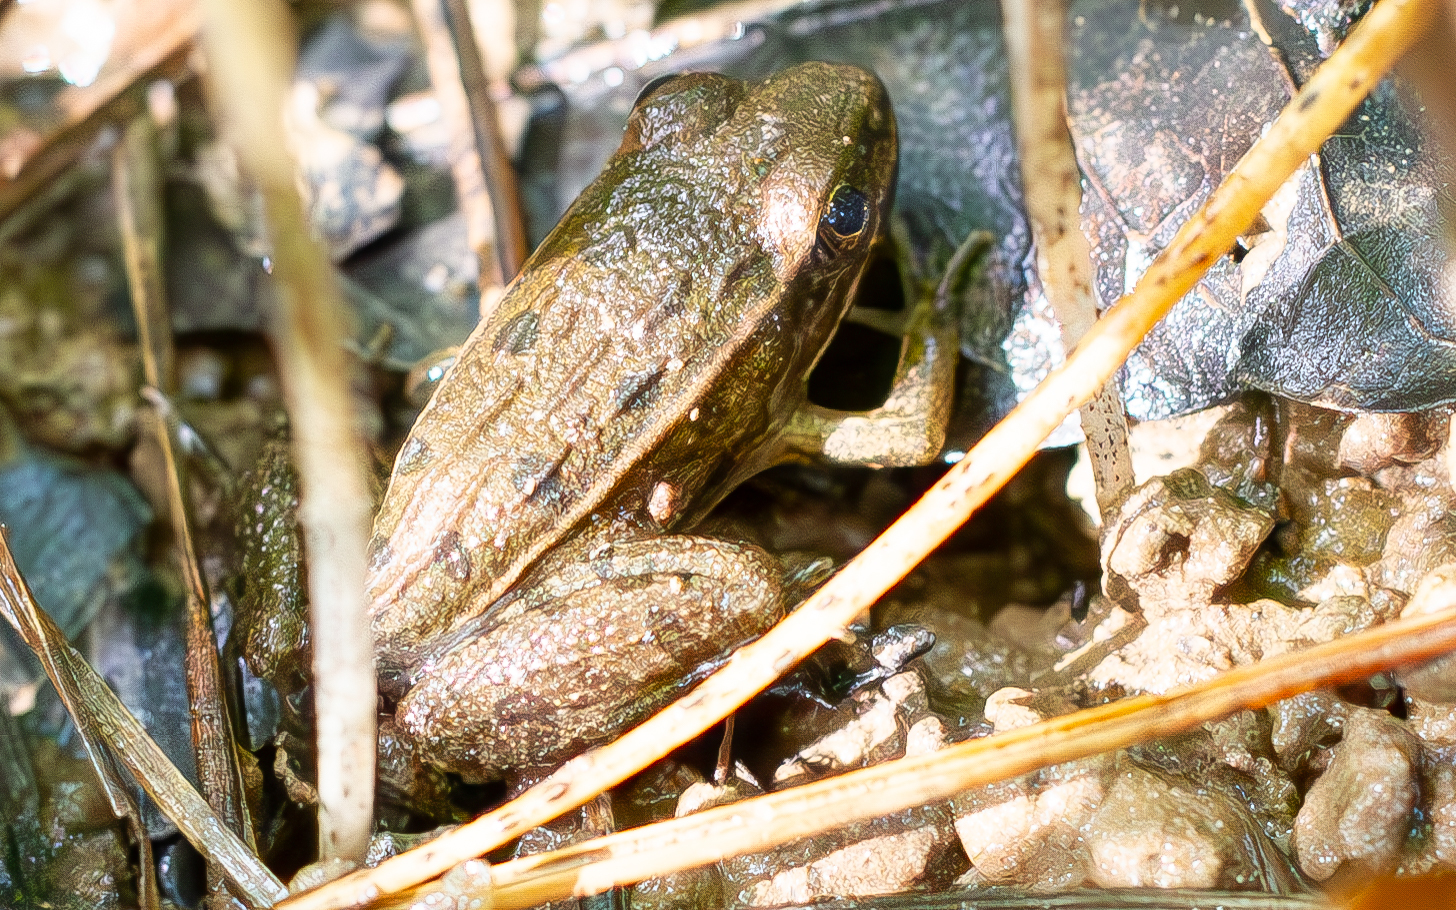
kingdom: Animalia
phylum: Chordata
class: Amphibia
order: Anura
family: Ranidae
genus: Lithobates
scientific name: Lithobates sphenocephalus
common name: Southern leopard frog
